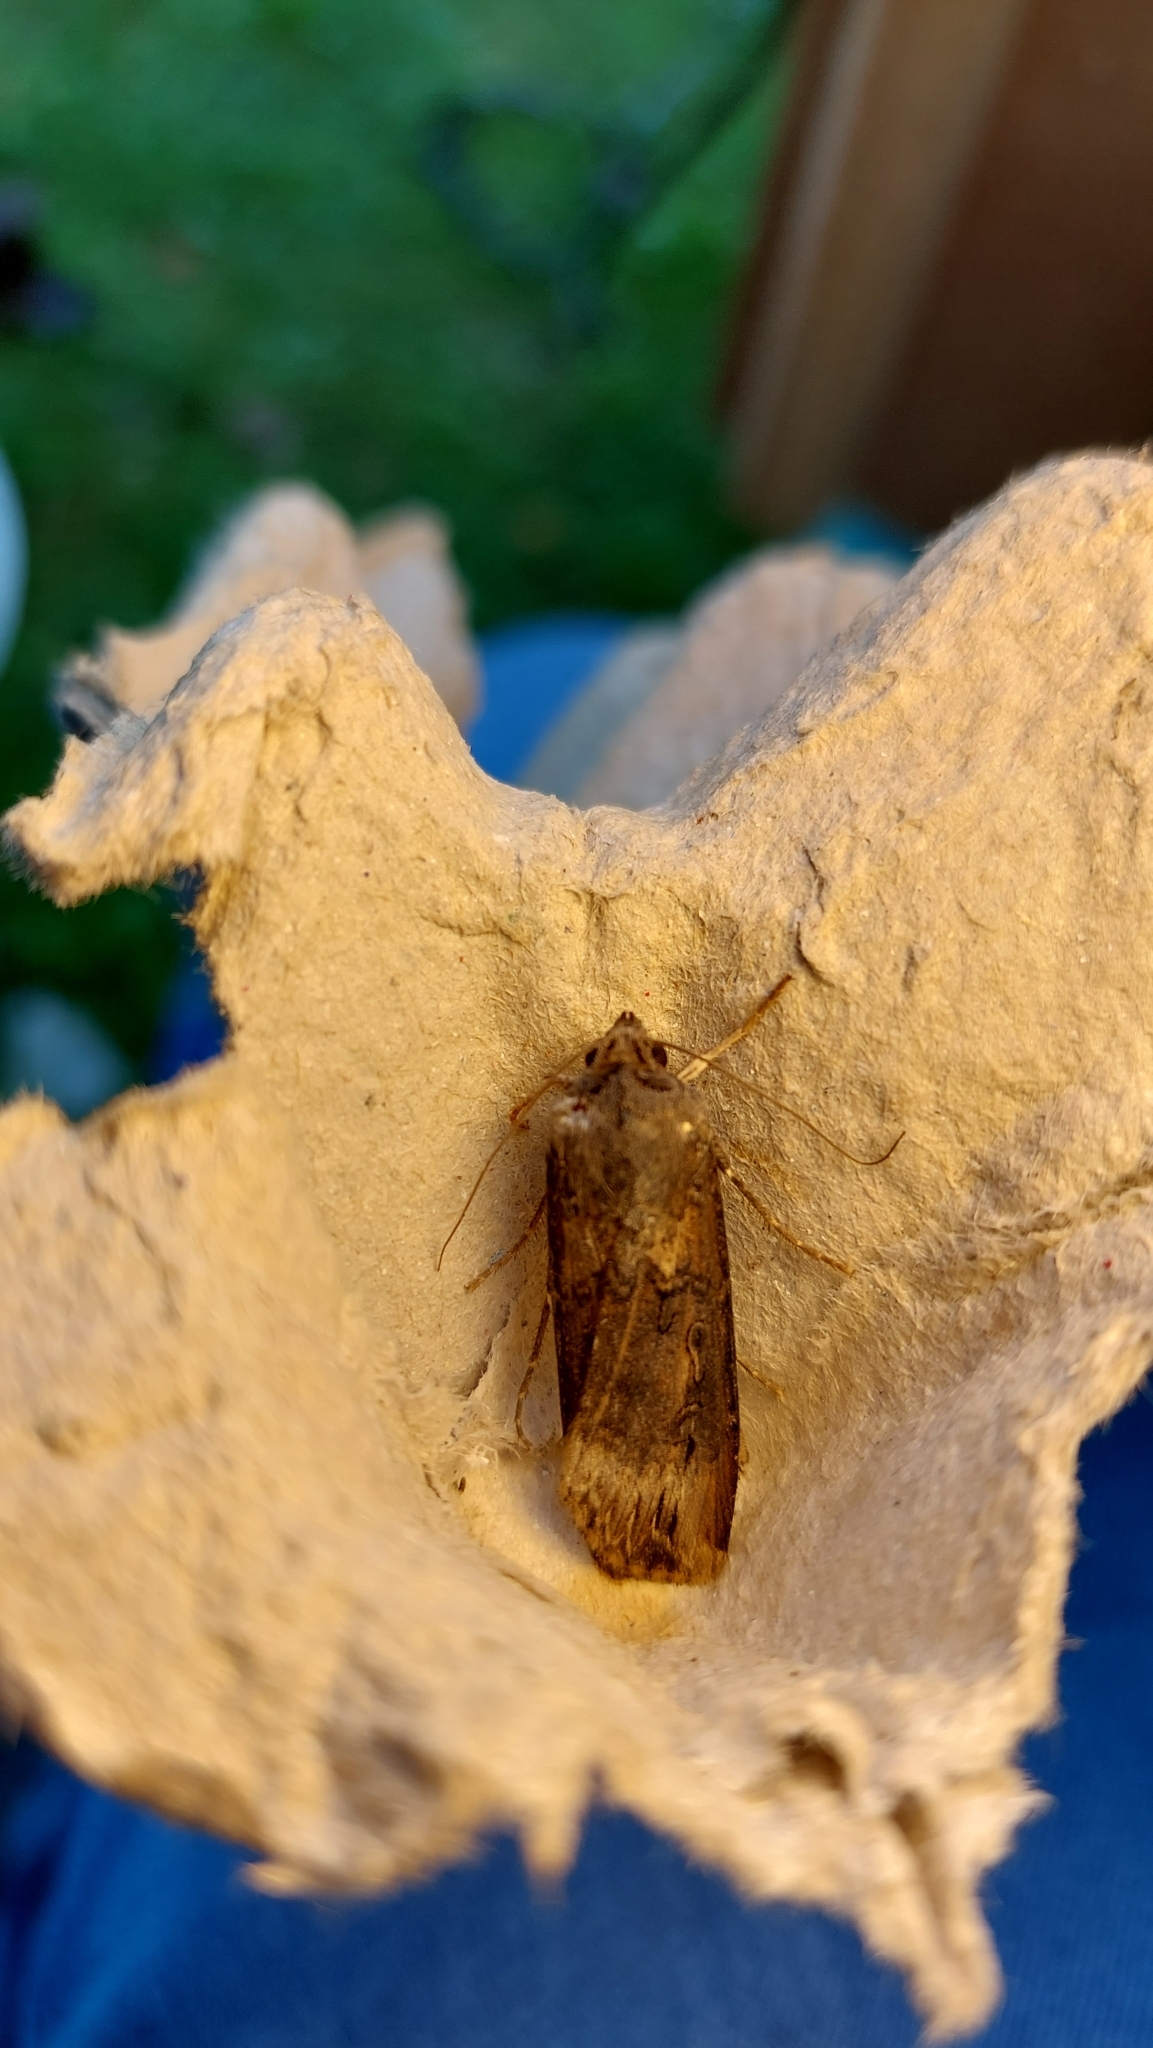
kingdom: Animalia
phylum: Arthropoda
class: Insecta
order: Lepidoptera
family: Noctuidae
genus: Agrotis
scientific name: Agrotis ipsilon
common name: Dark sword-grass
